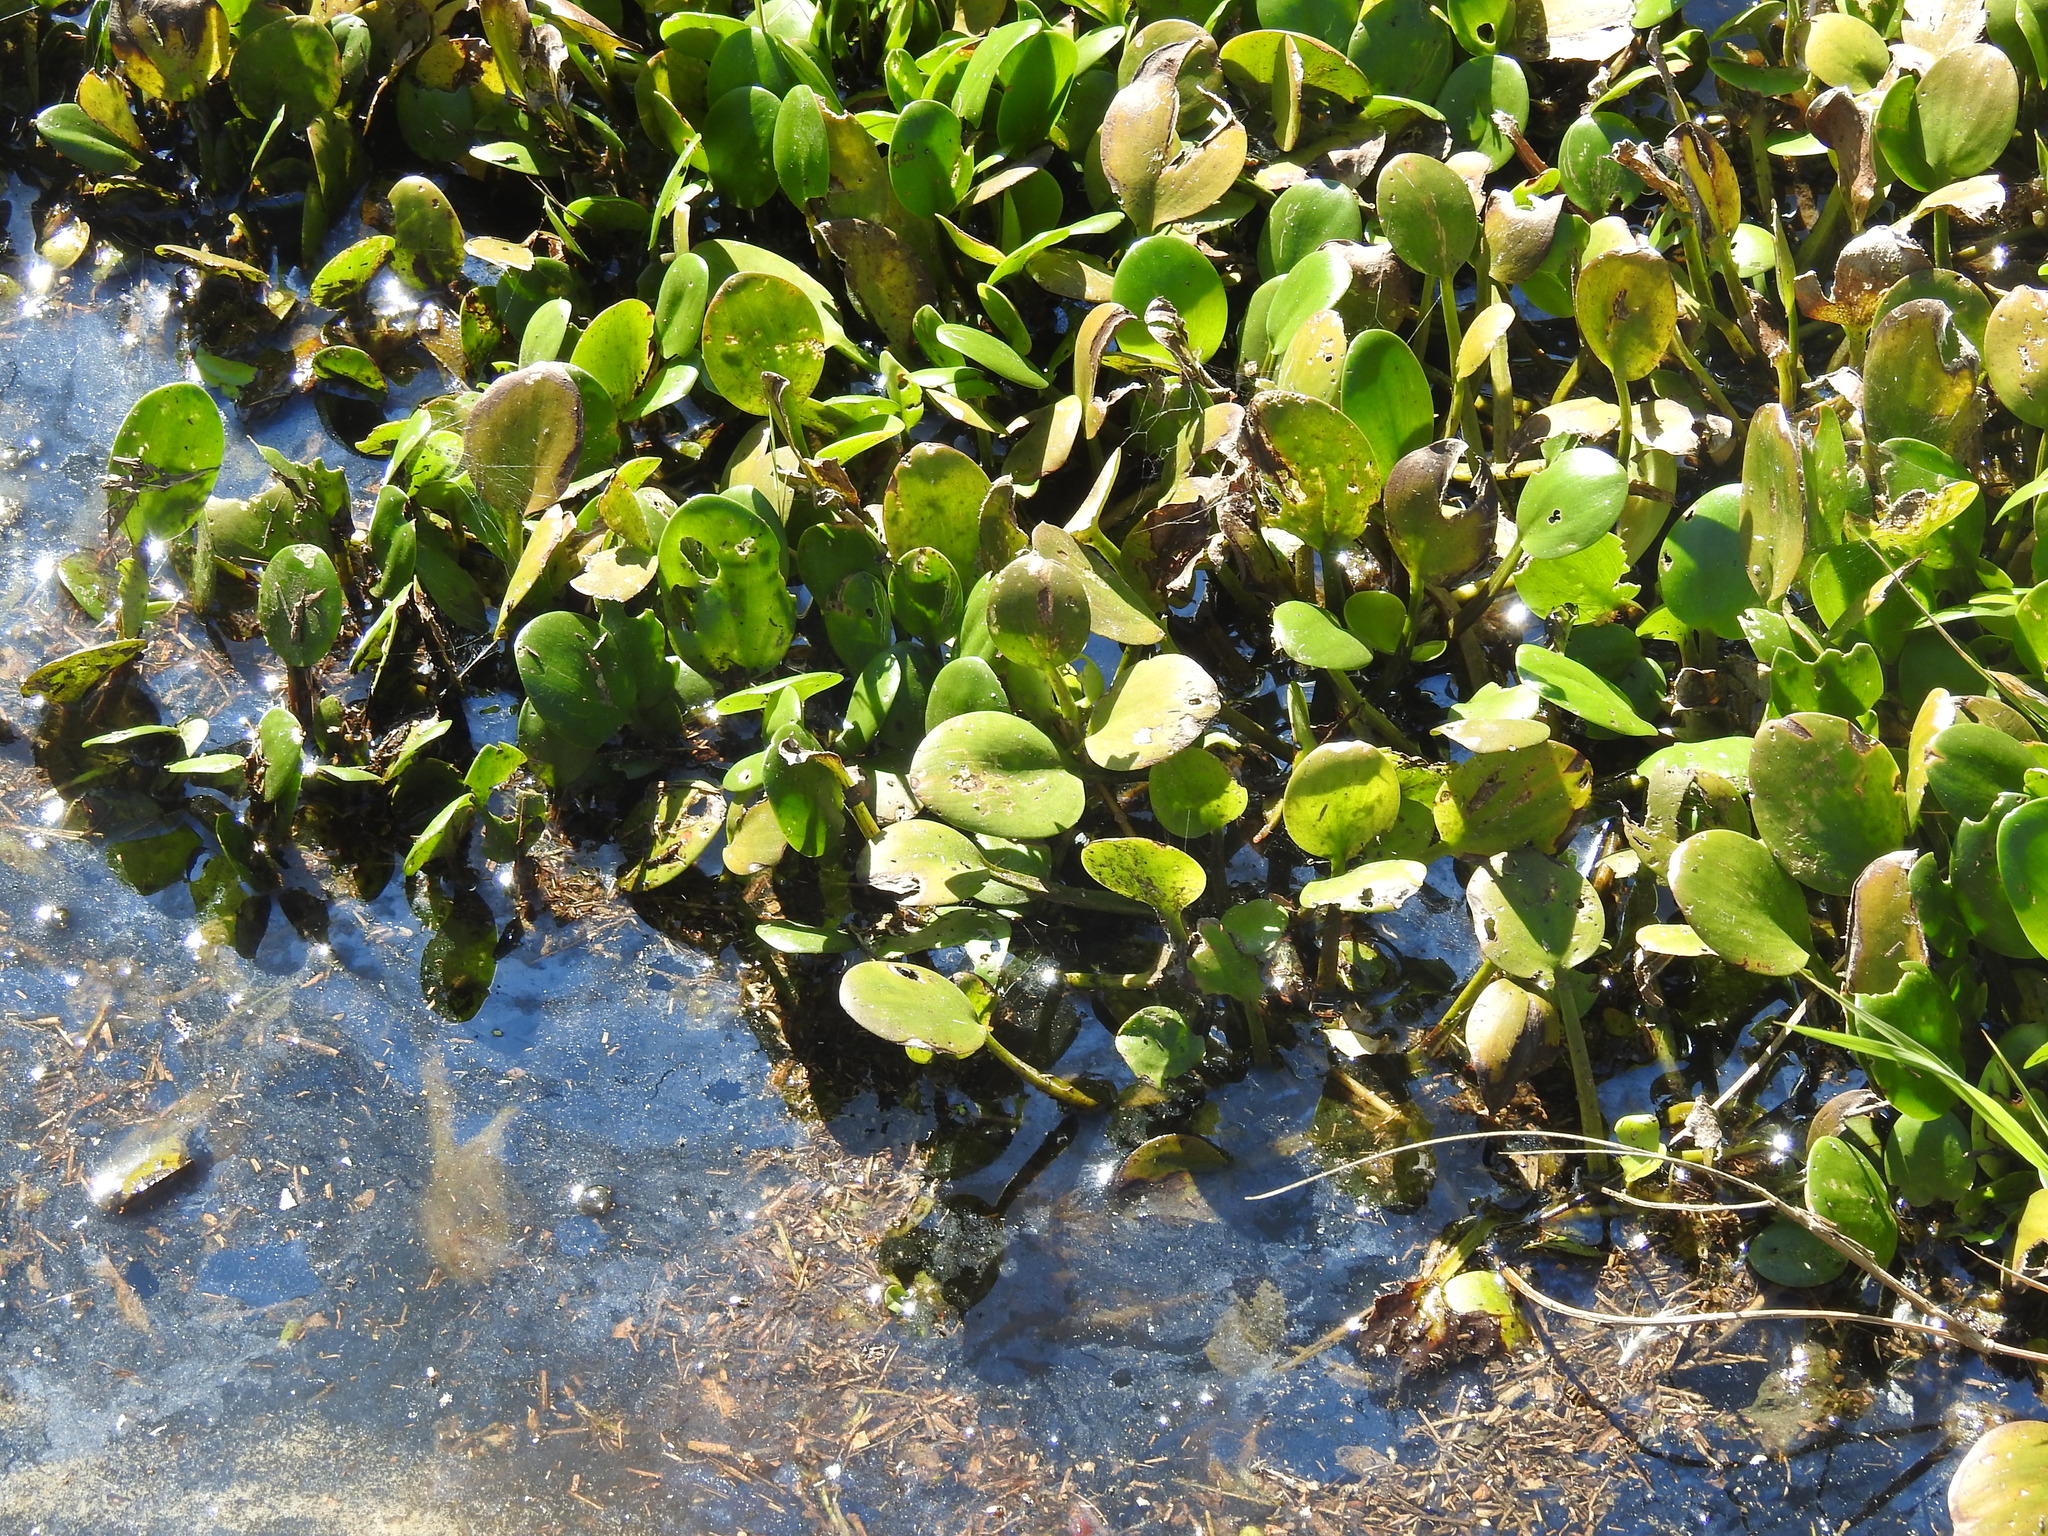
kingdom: Plantae
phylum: Tracheophyta
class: Liliopsida
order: Alismatales
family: Hydrocharitaceae
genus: Hydrocharis
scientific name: Hydrocharis laevigata
